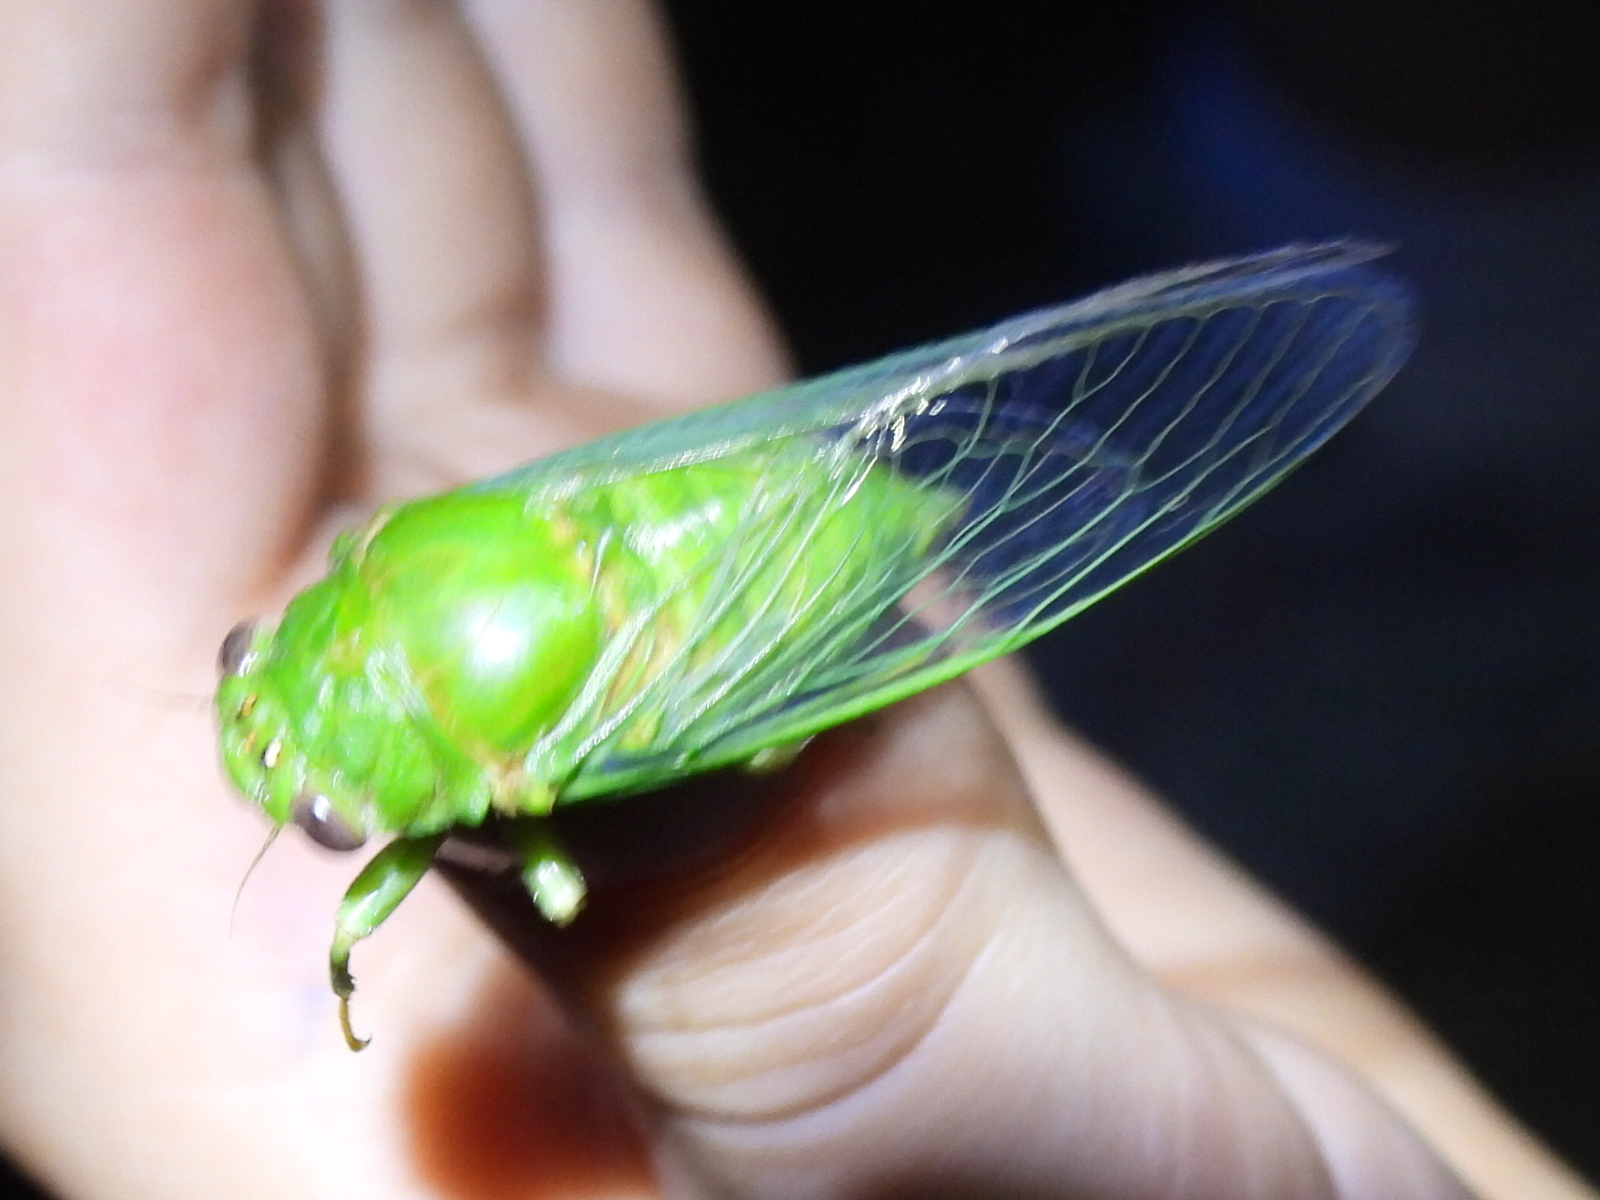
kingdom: Animalia
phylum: Arthropoda
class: Insecta
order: Hemiptera
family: Cicadidae
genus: Glaucopsaltria
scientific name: Glaucopsaltria viridis
